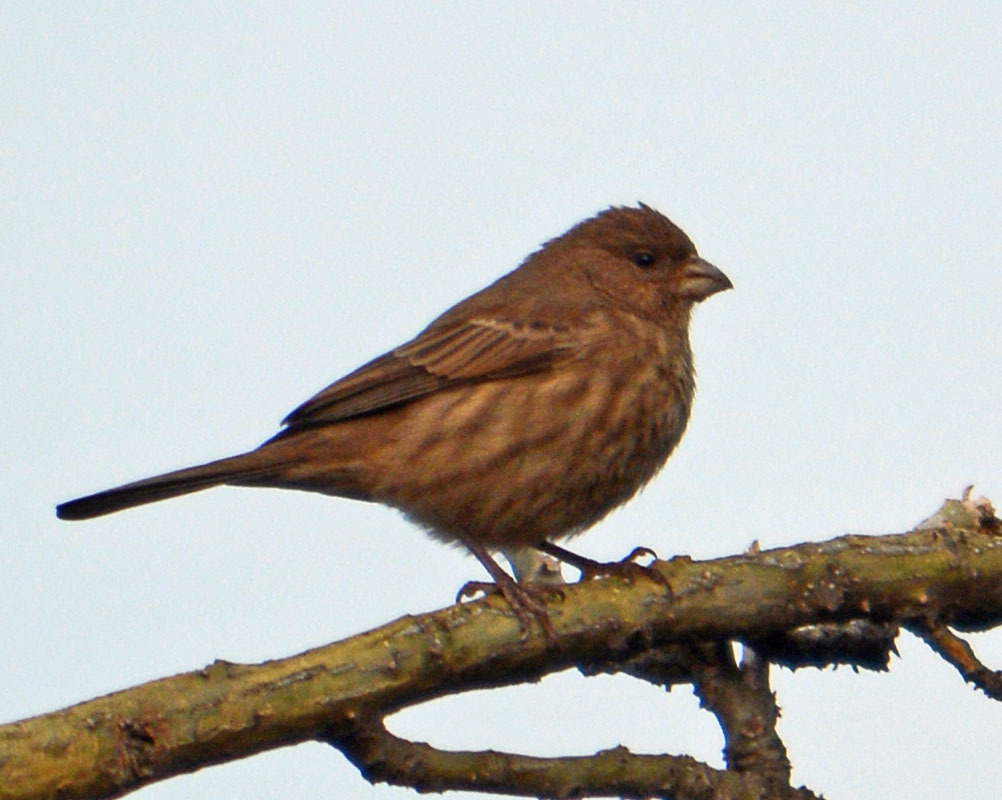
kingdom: Animalia
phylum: Chordata
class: Aves
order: Passeriformes
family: Fringillidae
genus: Haemorhous
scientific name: Haemorhous mexicanus
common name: House finch
